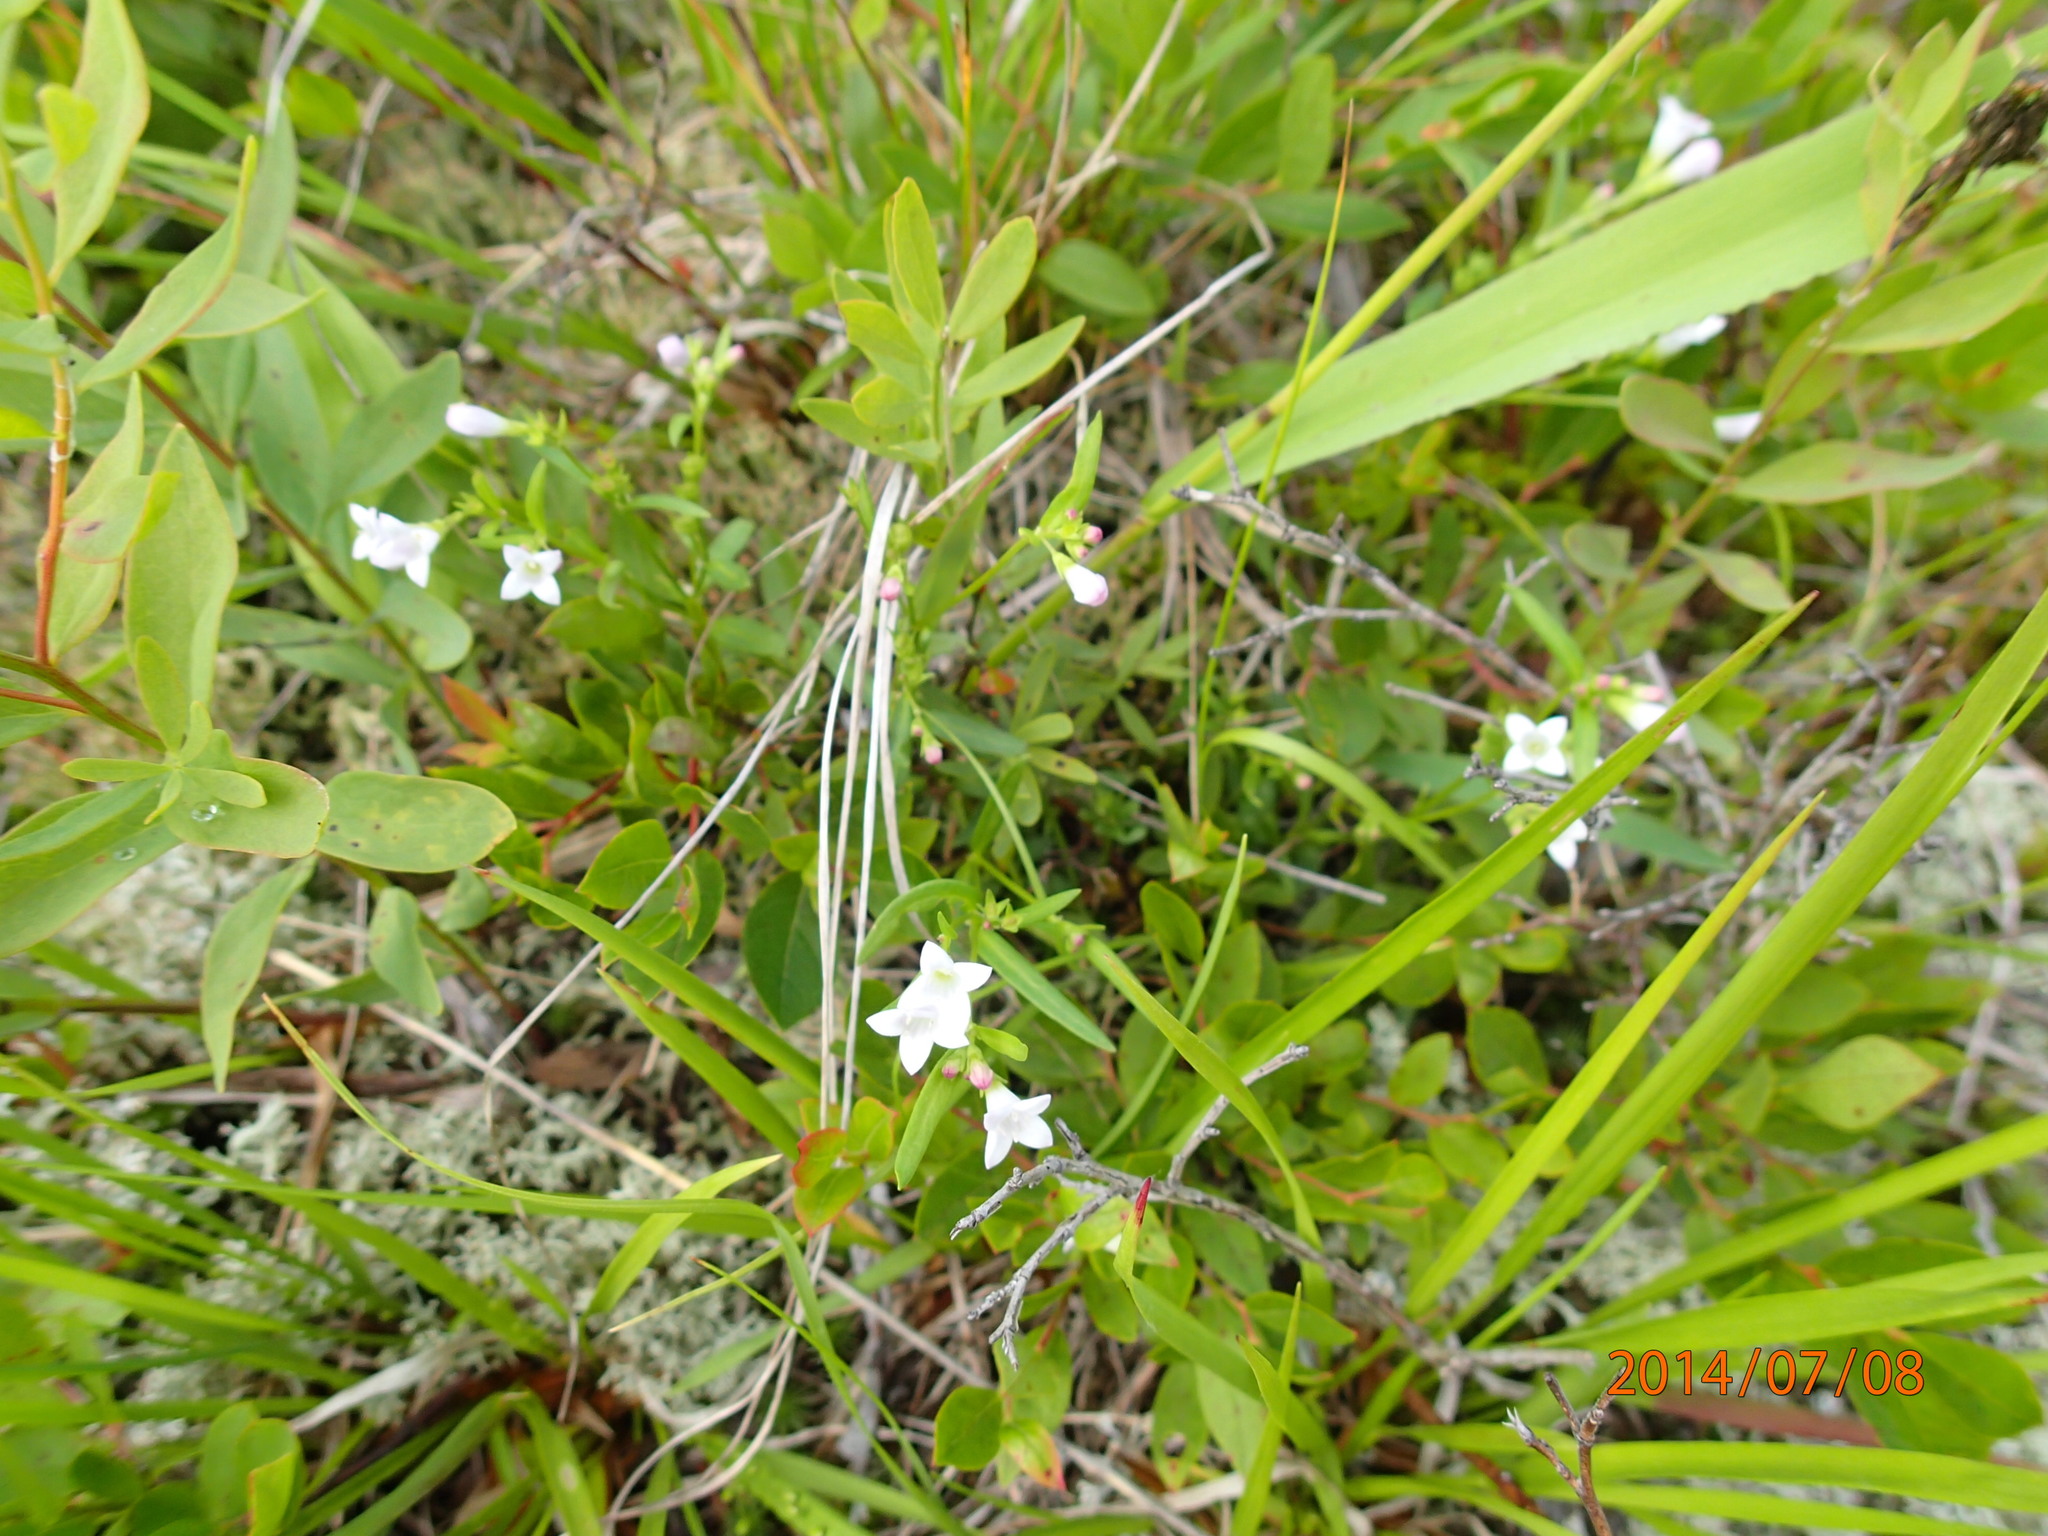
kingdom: Plantae
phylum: Tracheophyta
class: Magnoliopsida
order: Gentianales
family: Rubiaceae
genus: Houstonia
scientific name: Houstonia longifolia
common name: Long-leaved bluets
